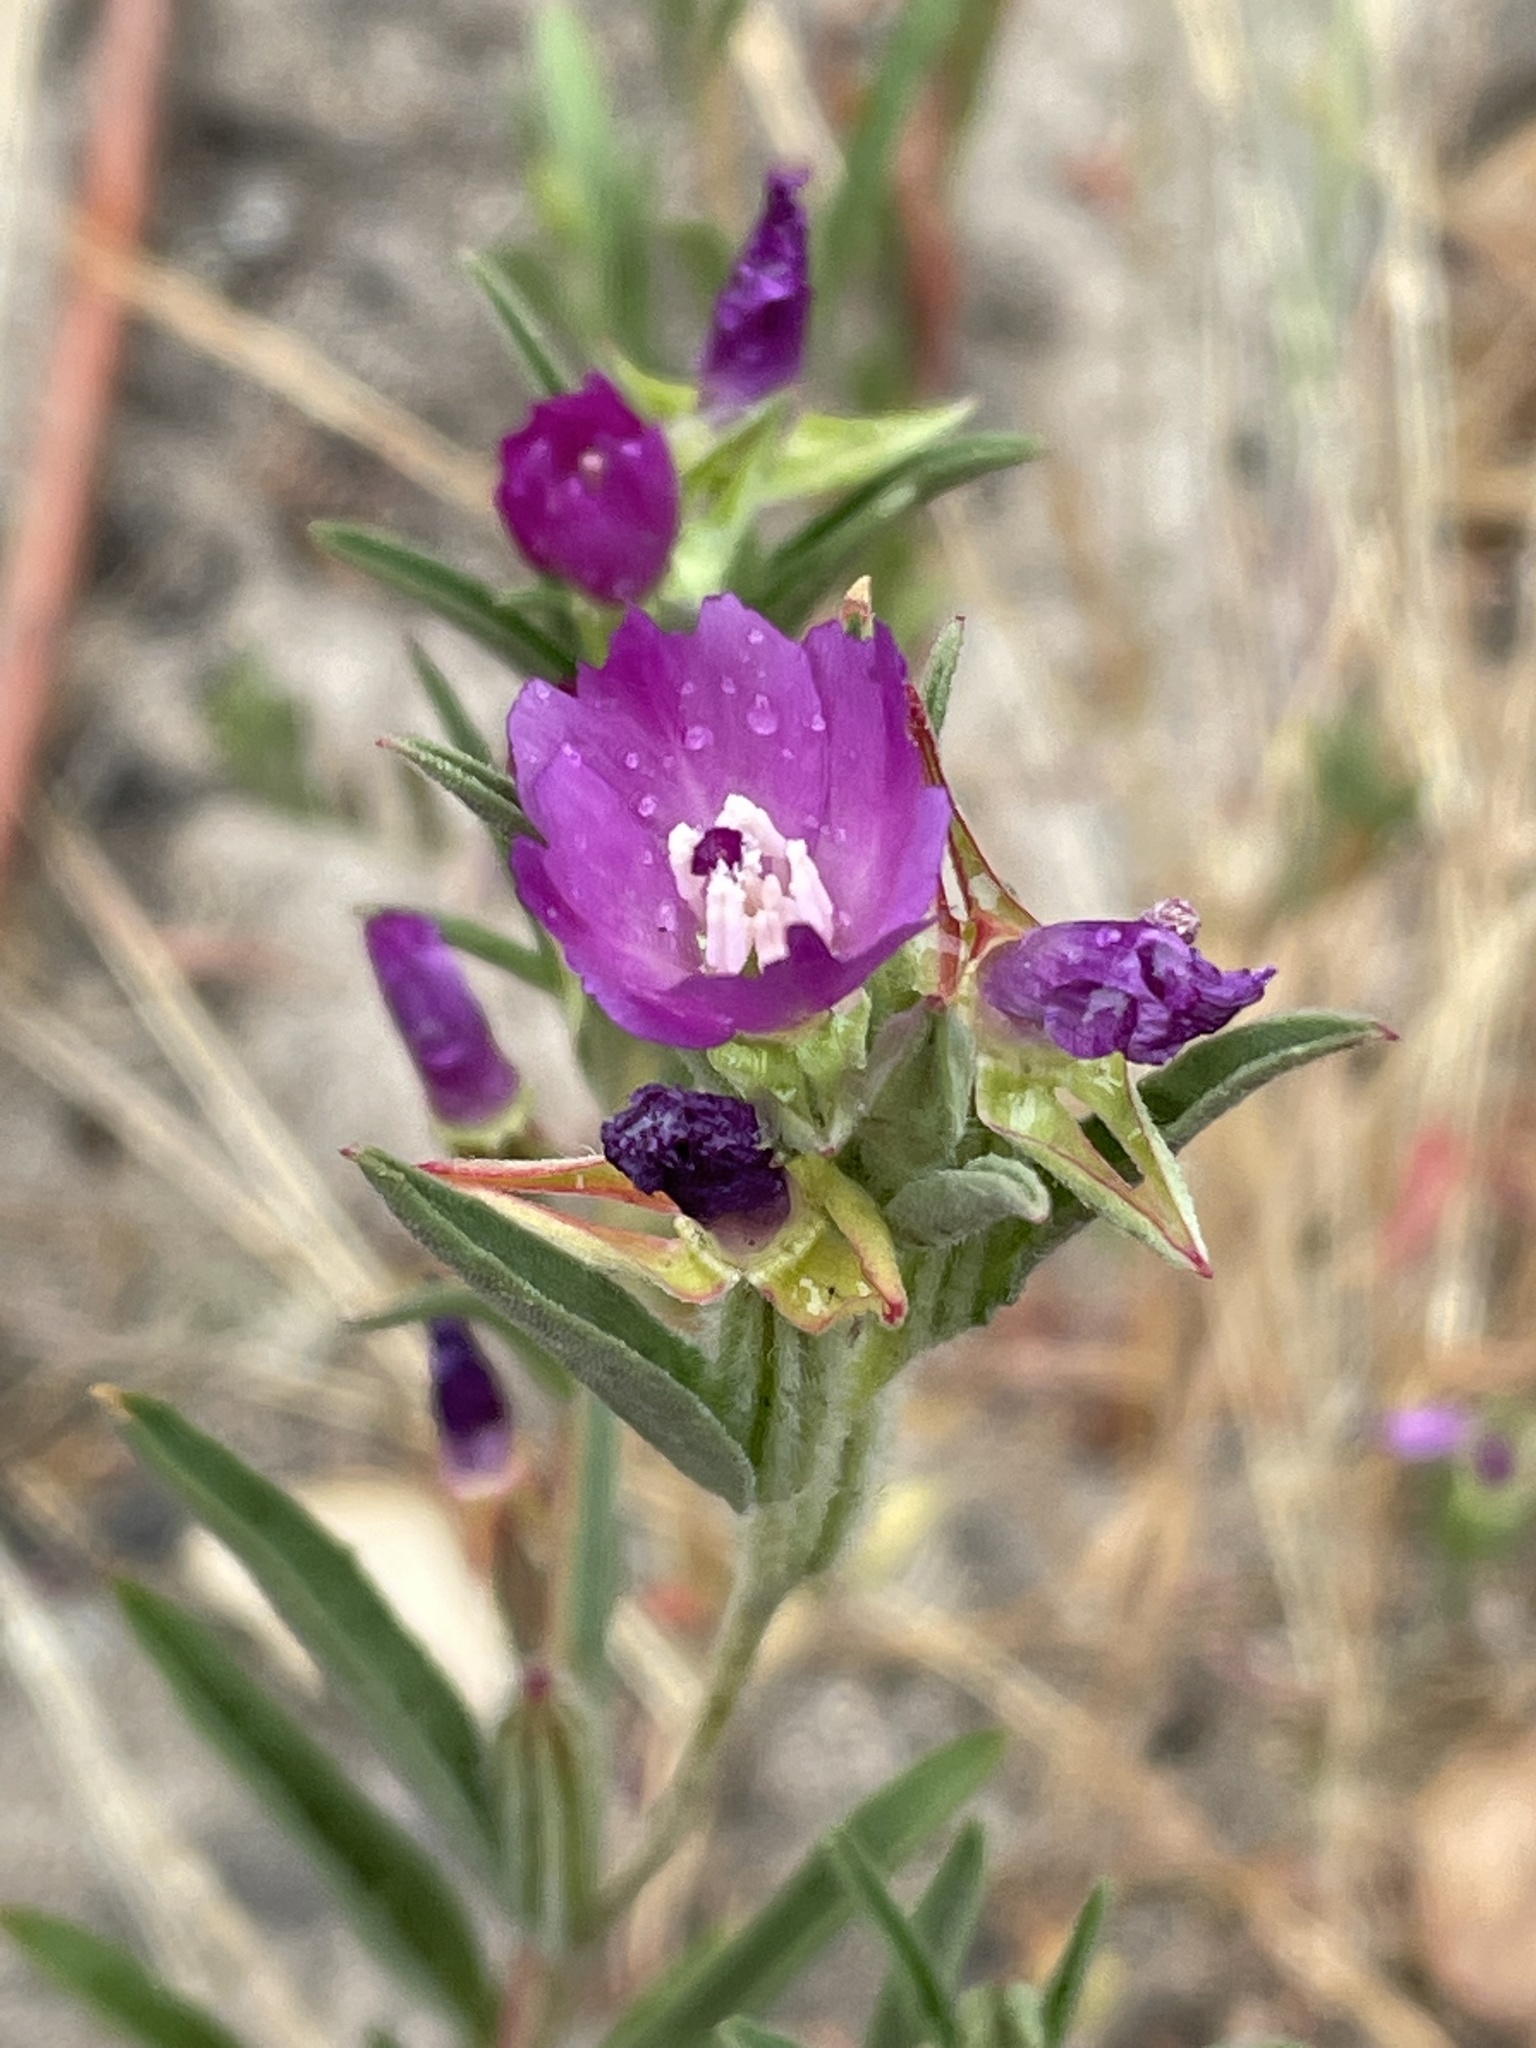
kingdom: Plantae
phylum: Tracheophyta
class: Magnoliopsida
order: Myrtales
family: Onagraceae
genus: Clarkia
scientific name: Clarkia purpurea
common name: Purple clarkia
